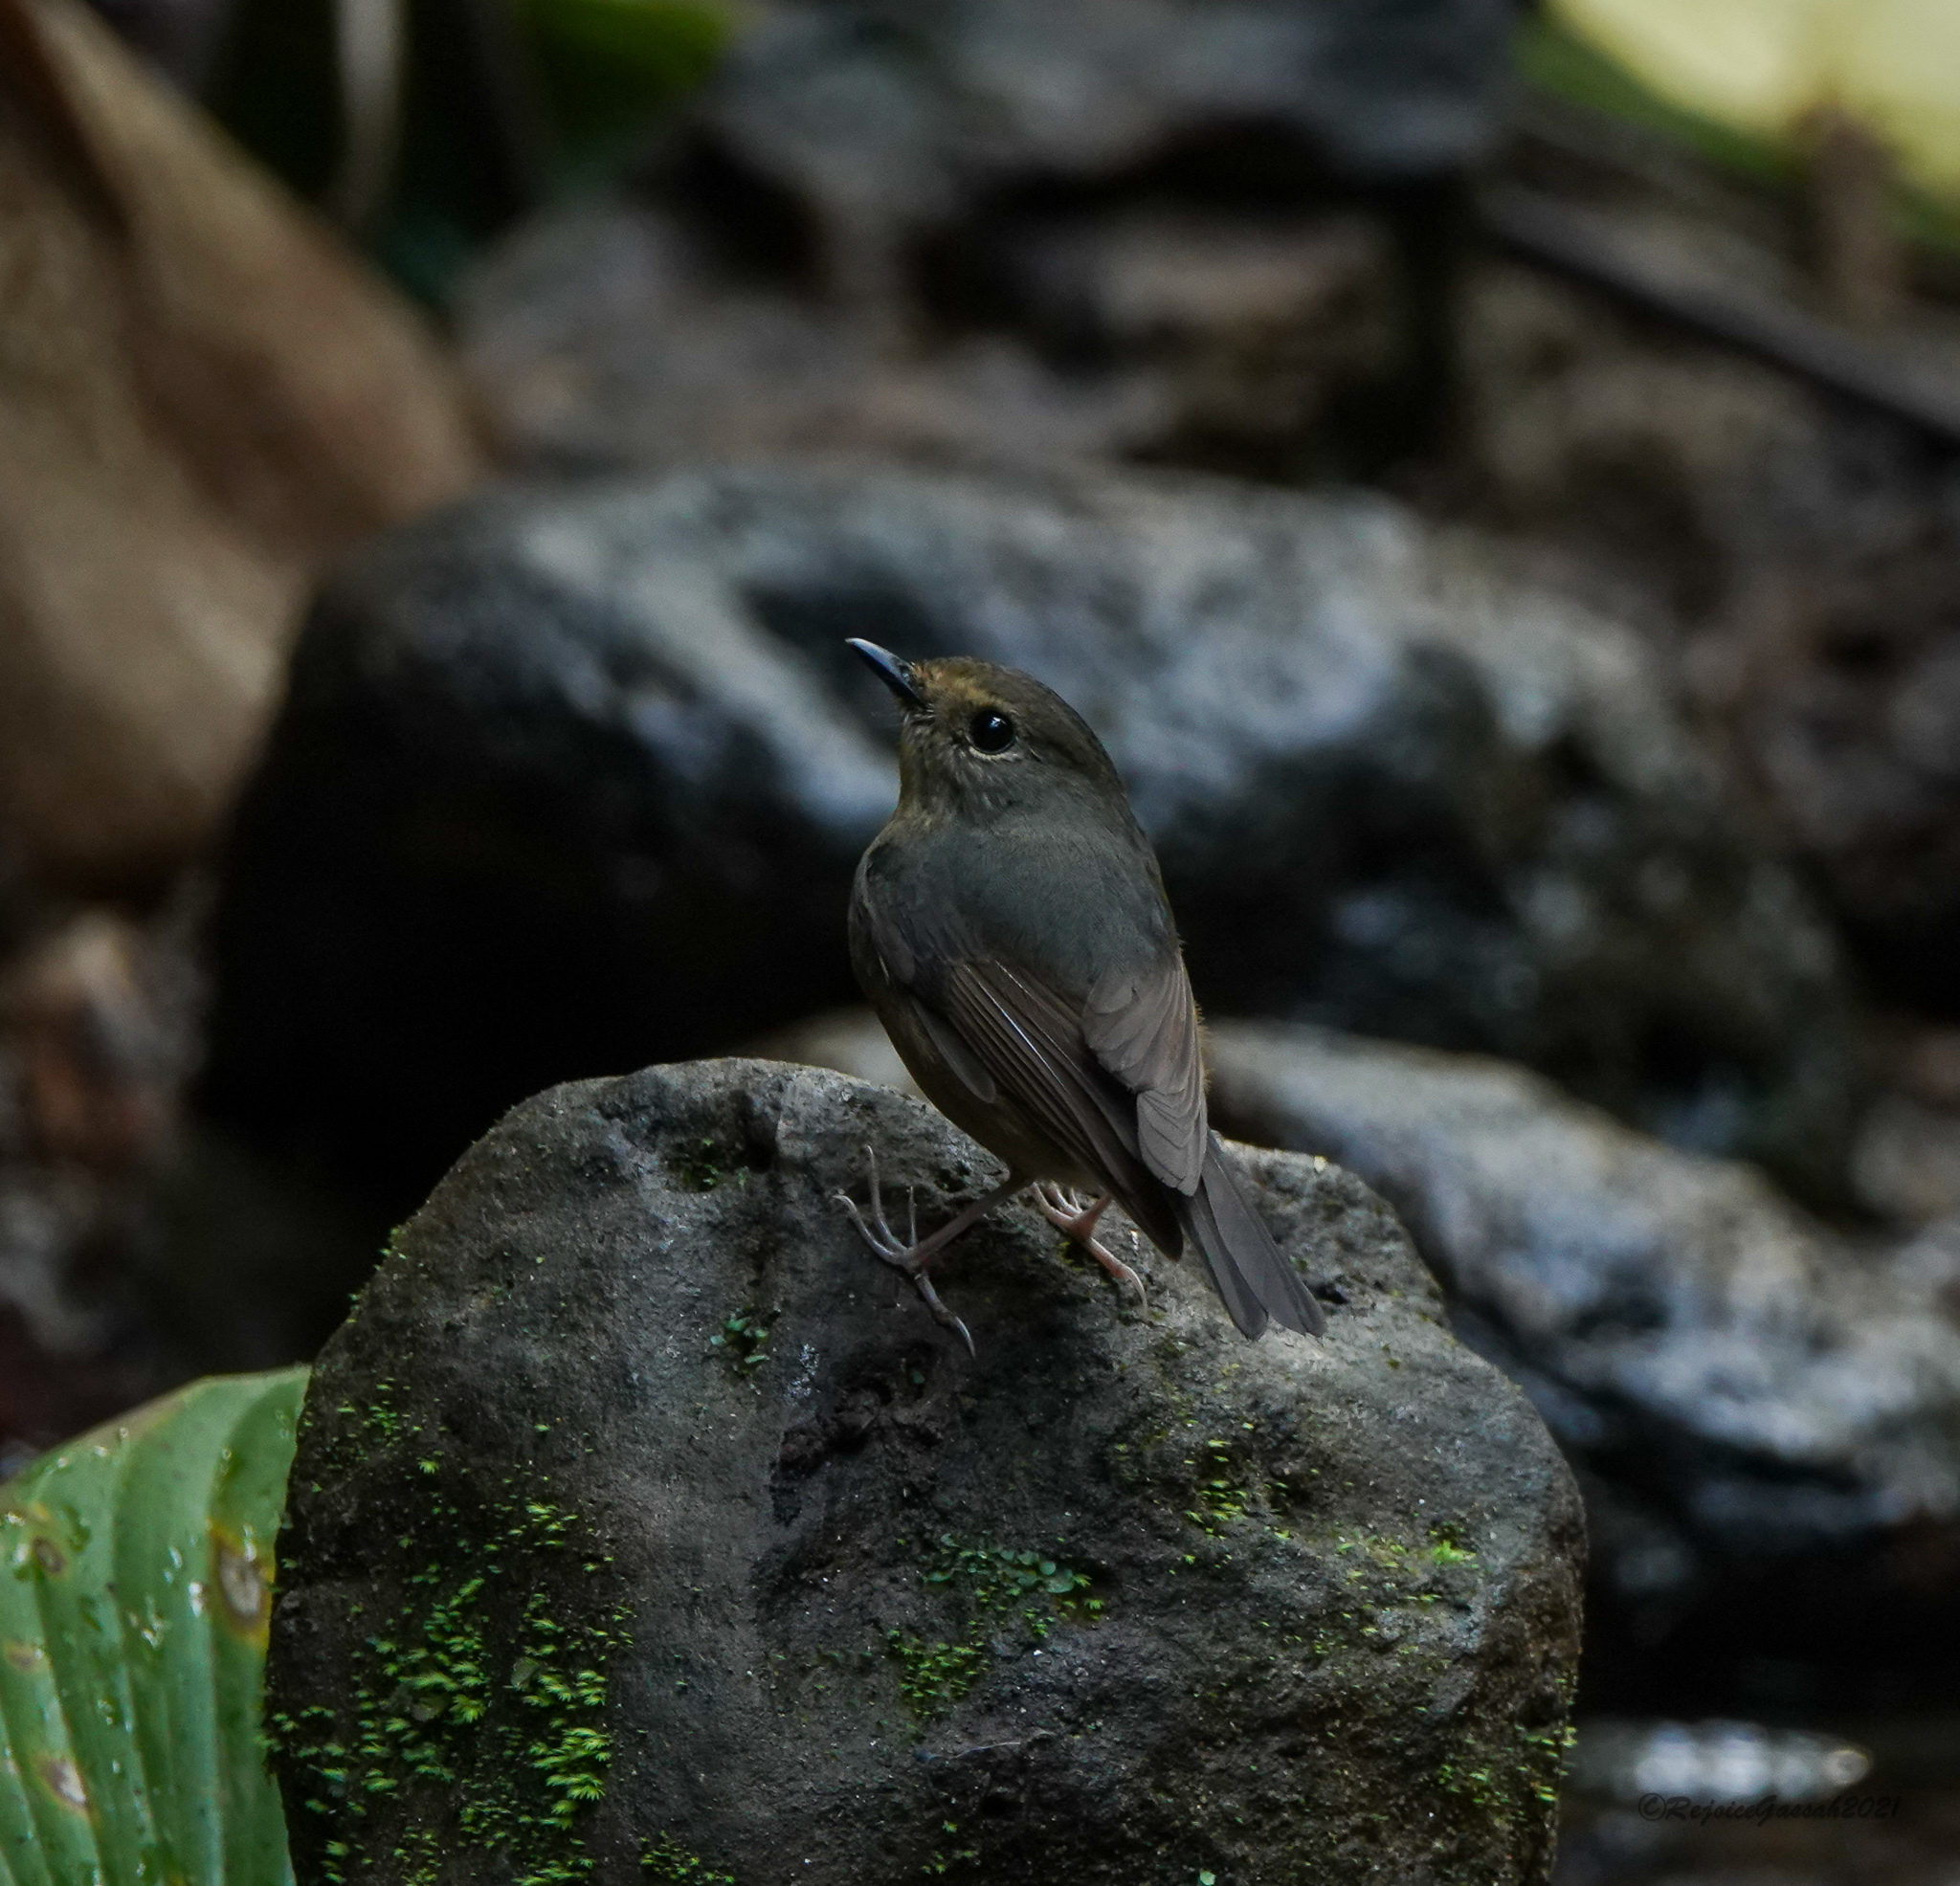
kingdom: Animalia
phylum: Chordata
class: Aves
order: Passeriformes
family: Muscicapidae
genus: Ficedula
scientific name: Ficedula hyperythra
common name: Snowy-browed flycatcher
